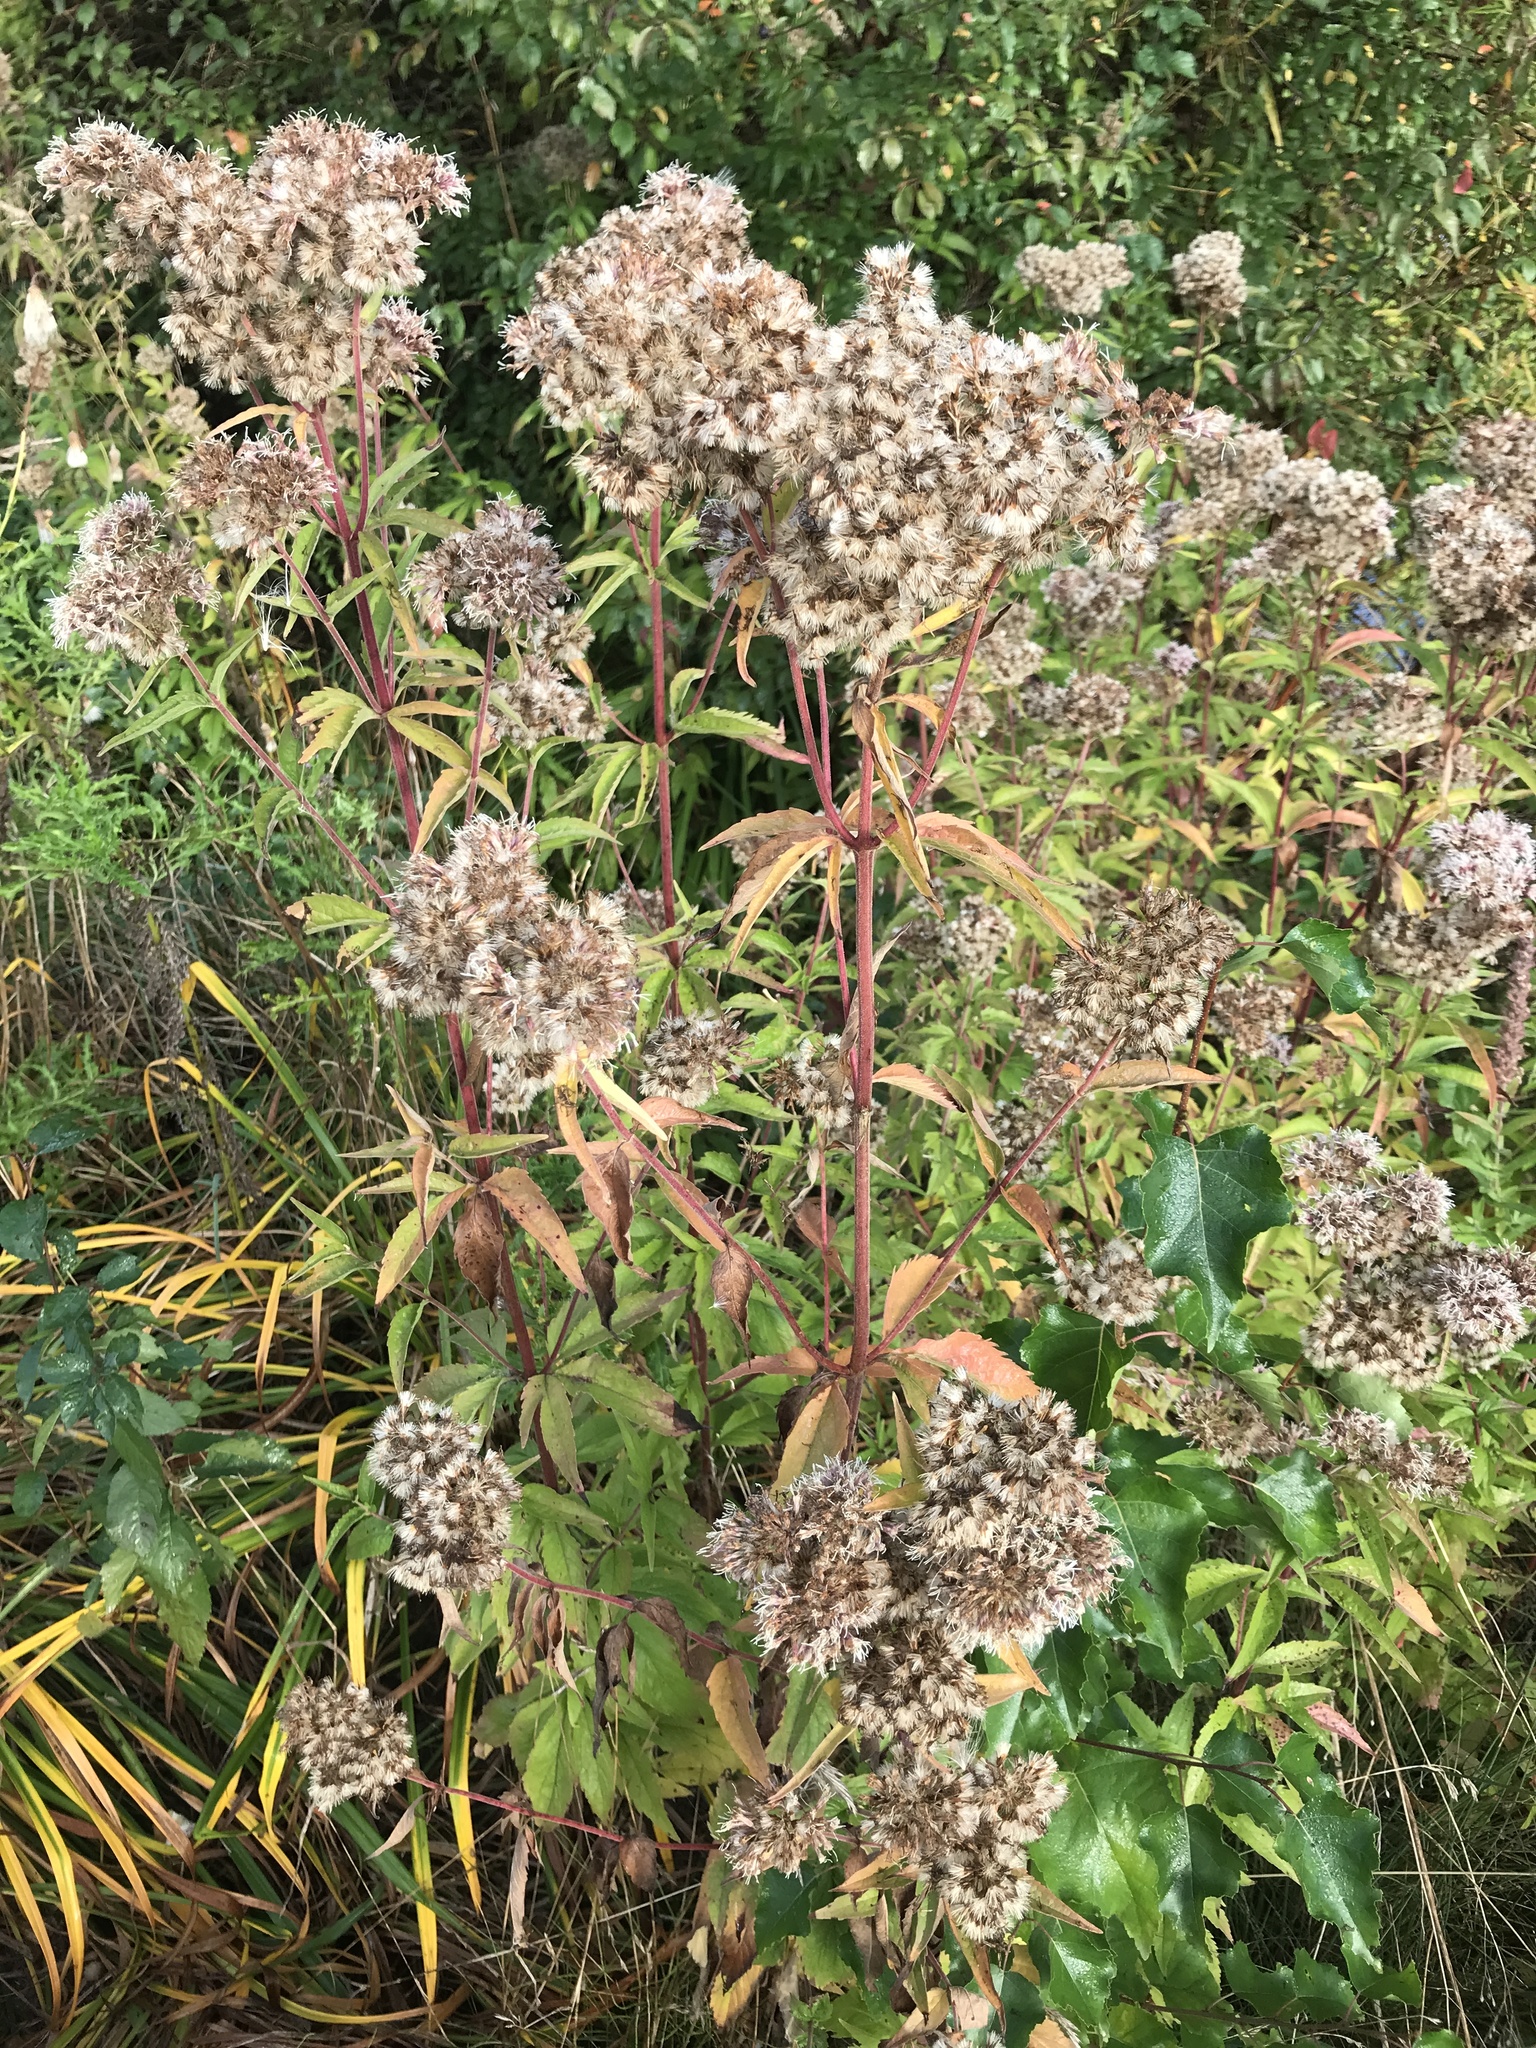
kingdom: Plantae
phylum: Tracheophyta
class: Magnoliopsida
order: Asterales
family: Asteraceae
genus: Eupatorium
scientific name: Eupatorium cannabinum
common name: Hemp-agrimony
